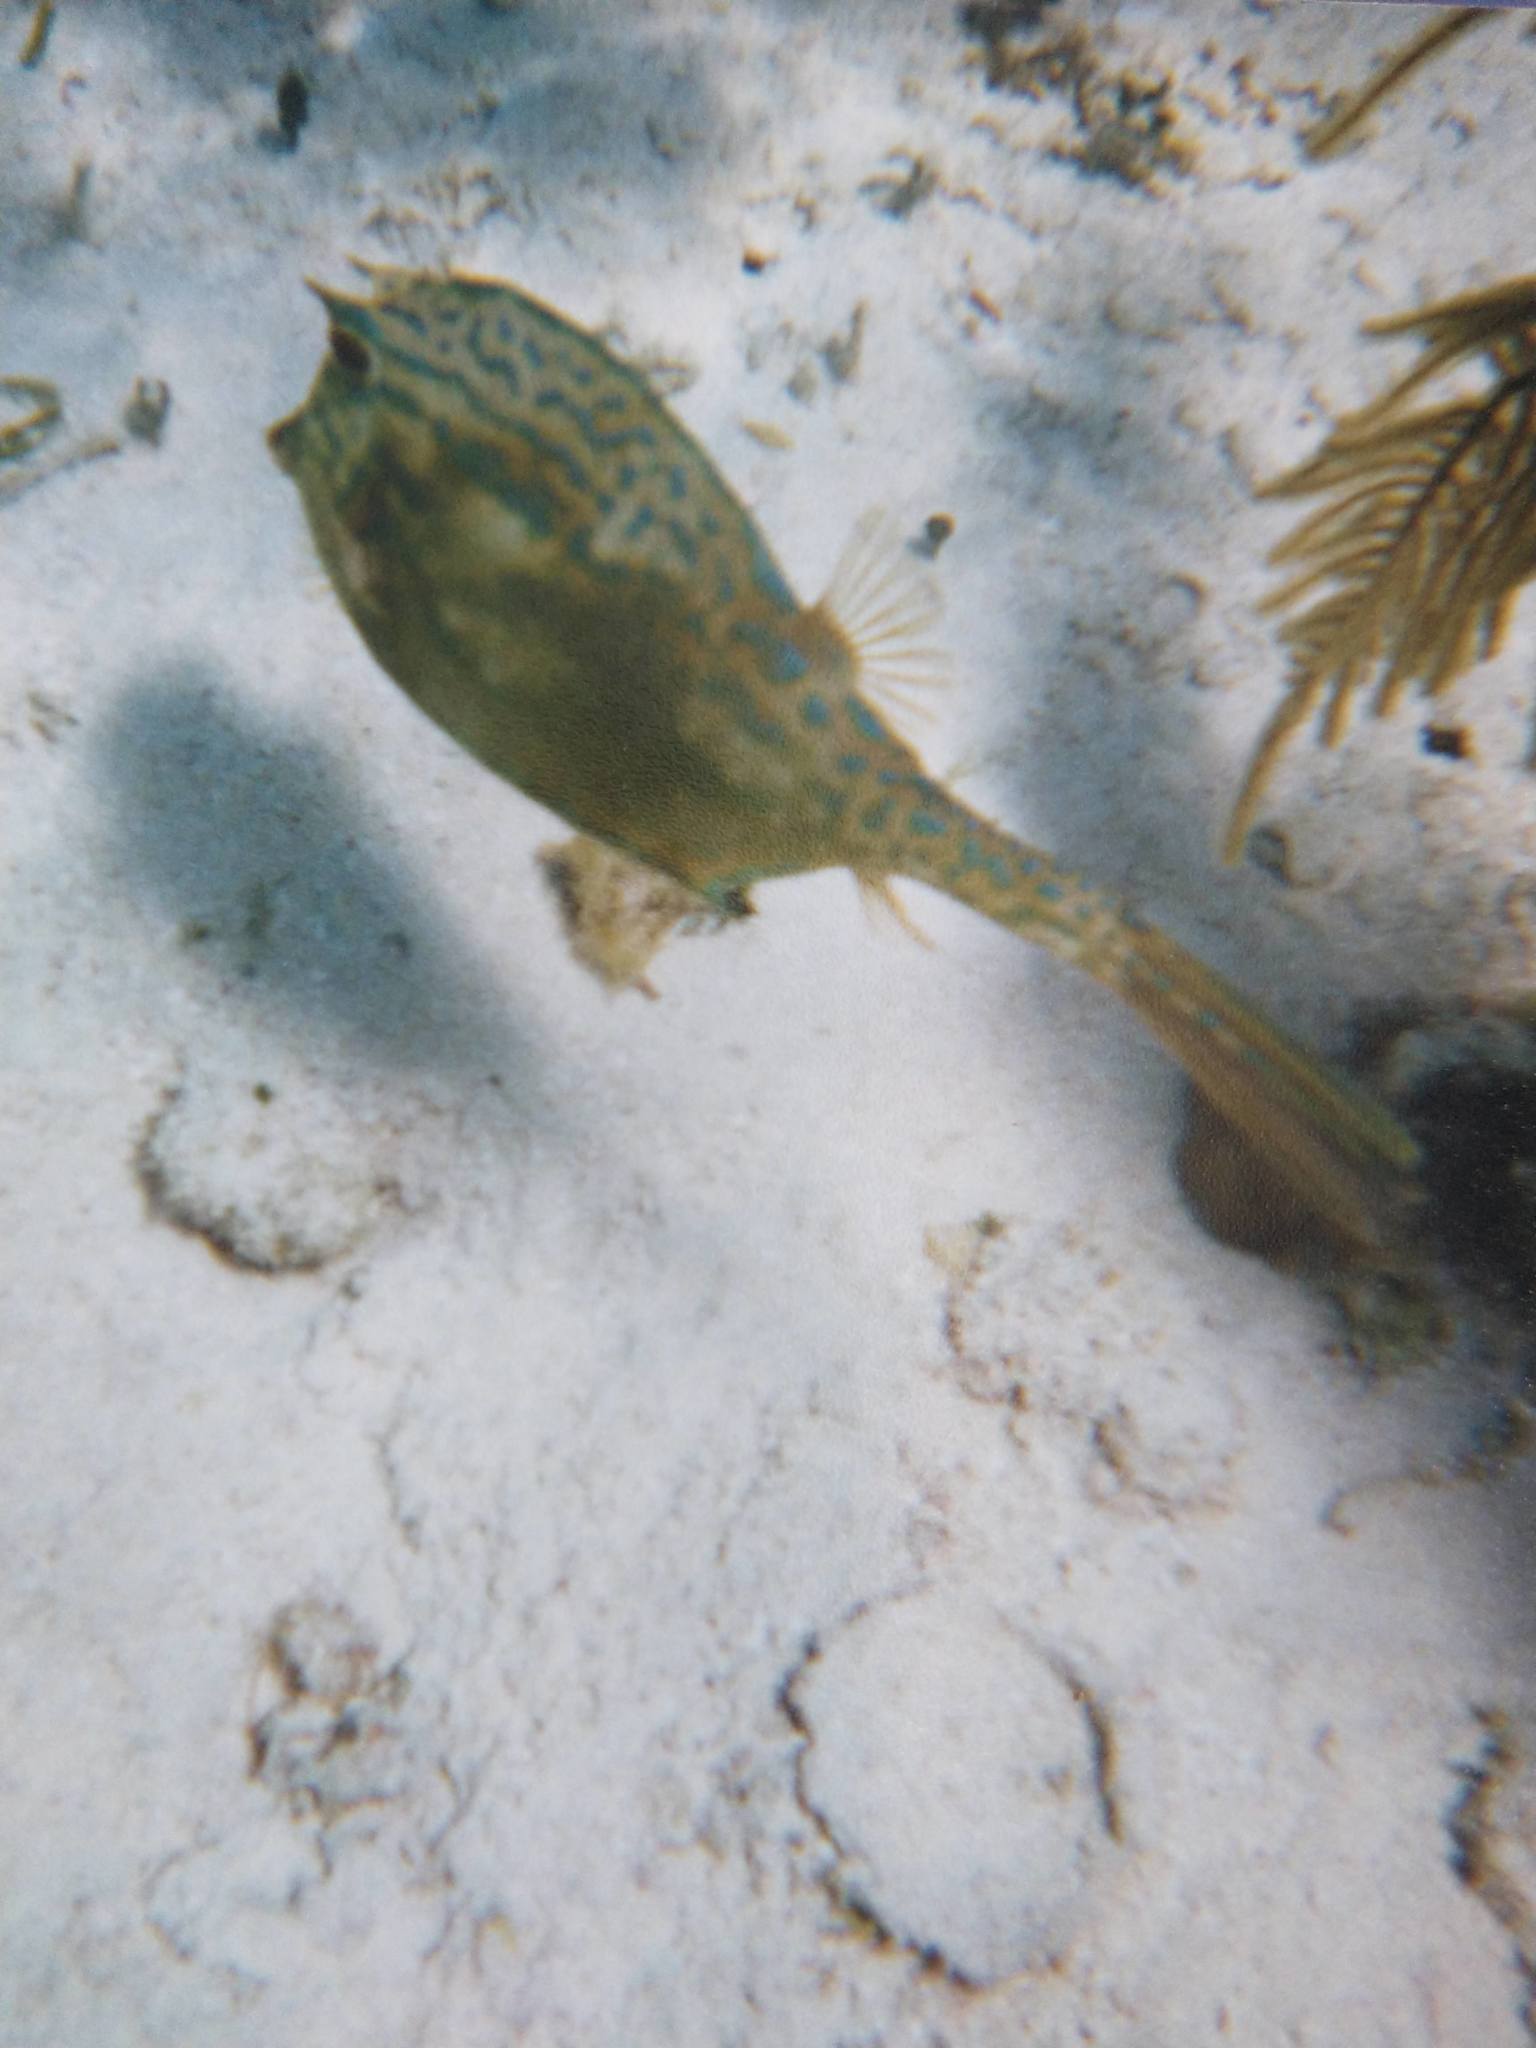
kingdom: Animalia
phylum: Chordata
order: Tetraodontiformes
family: Ostraciidae
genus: Acanthostracion
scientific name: Acanthostracion quadricornis
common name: Scrawled cowfish
